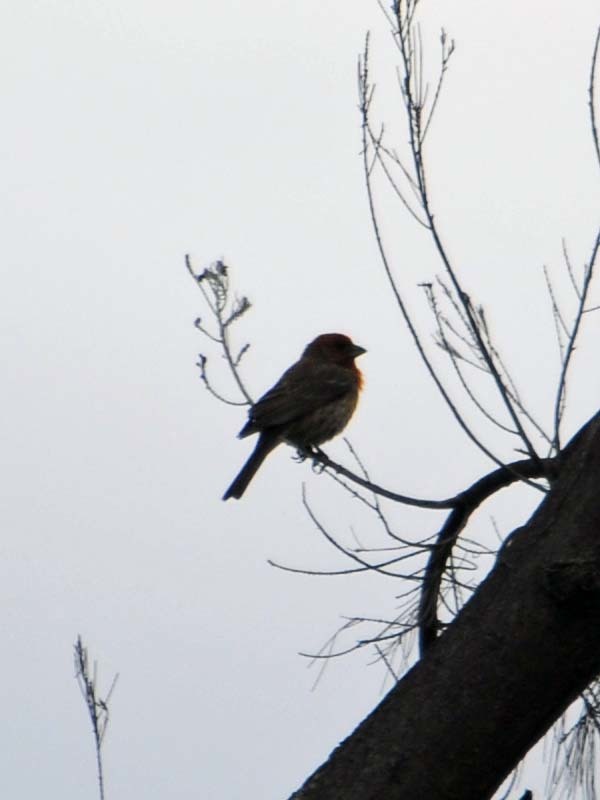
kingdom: Animalia
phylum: Chordata
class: Aves
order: Passeriformes
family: Fringillidae
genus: Haemorhous
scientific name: Haemorhous mexicanus
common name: House finch
